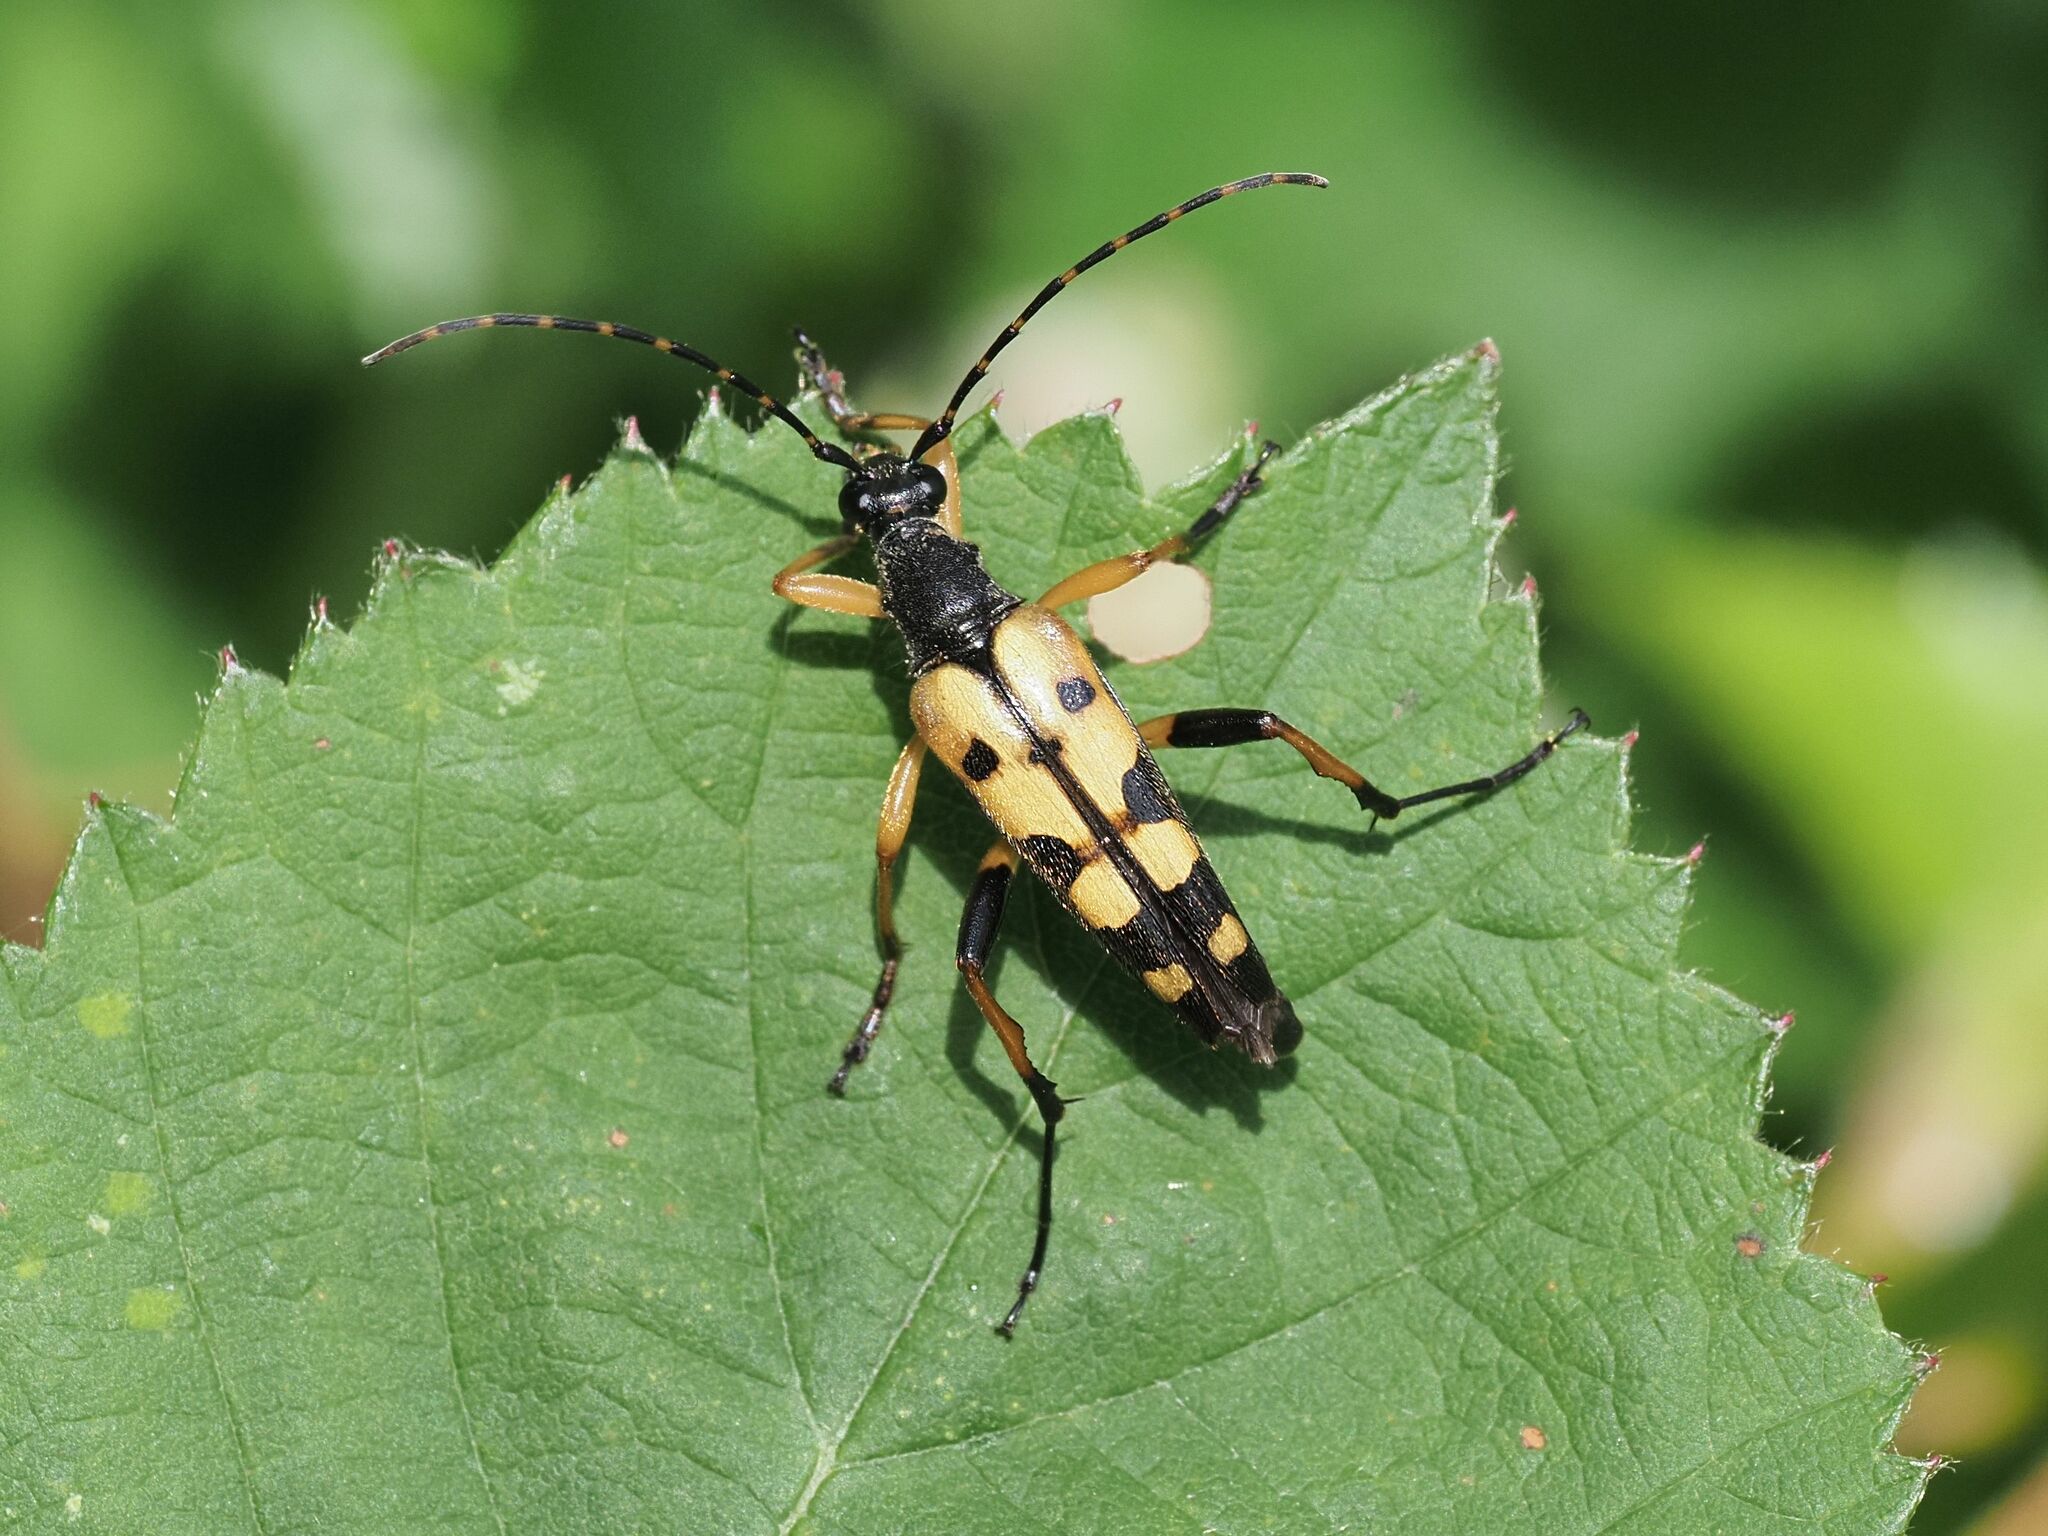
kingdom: Animalia
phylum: Arthropoda
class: Insecta
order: Coleoptera
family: Cerambycidae
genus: Rutpela
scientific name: Rutpela maculata
